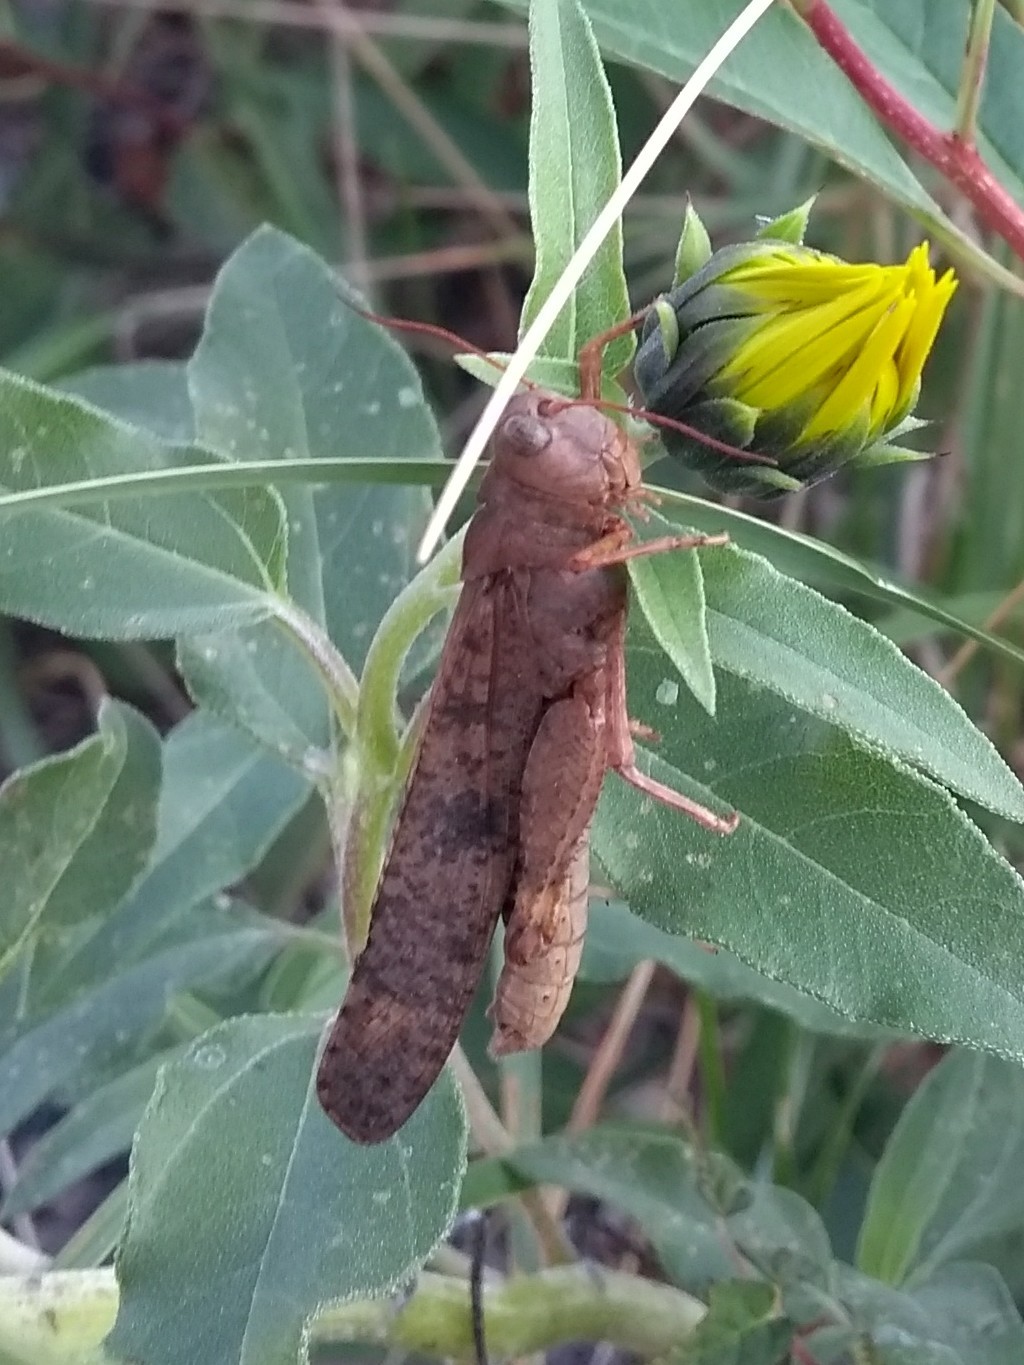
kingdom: Animalia
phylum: Arthropoda
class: Insecta
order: Orthoptera
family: Acrididae
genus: Dissosteira
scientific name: Dissosteira carolina
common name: Carolina grasshopper
